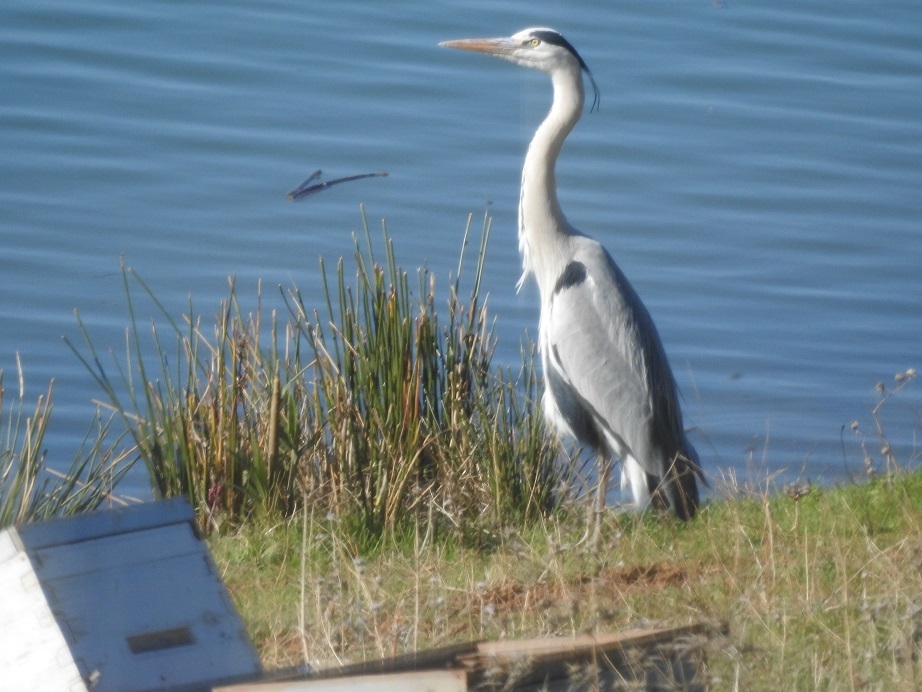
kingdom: Animalia
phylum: Chordata
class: Aves
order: Pelecaniformes
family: Ardeidae
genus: Ardea
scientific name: Ardea cinerea
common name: Grey heron
